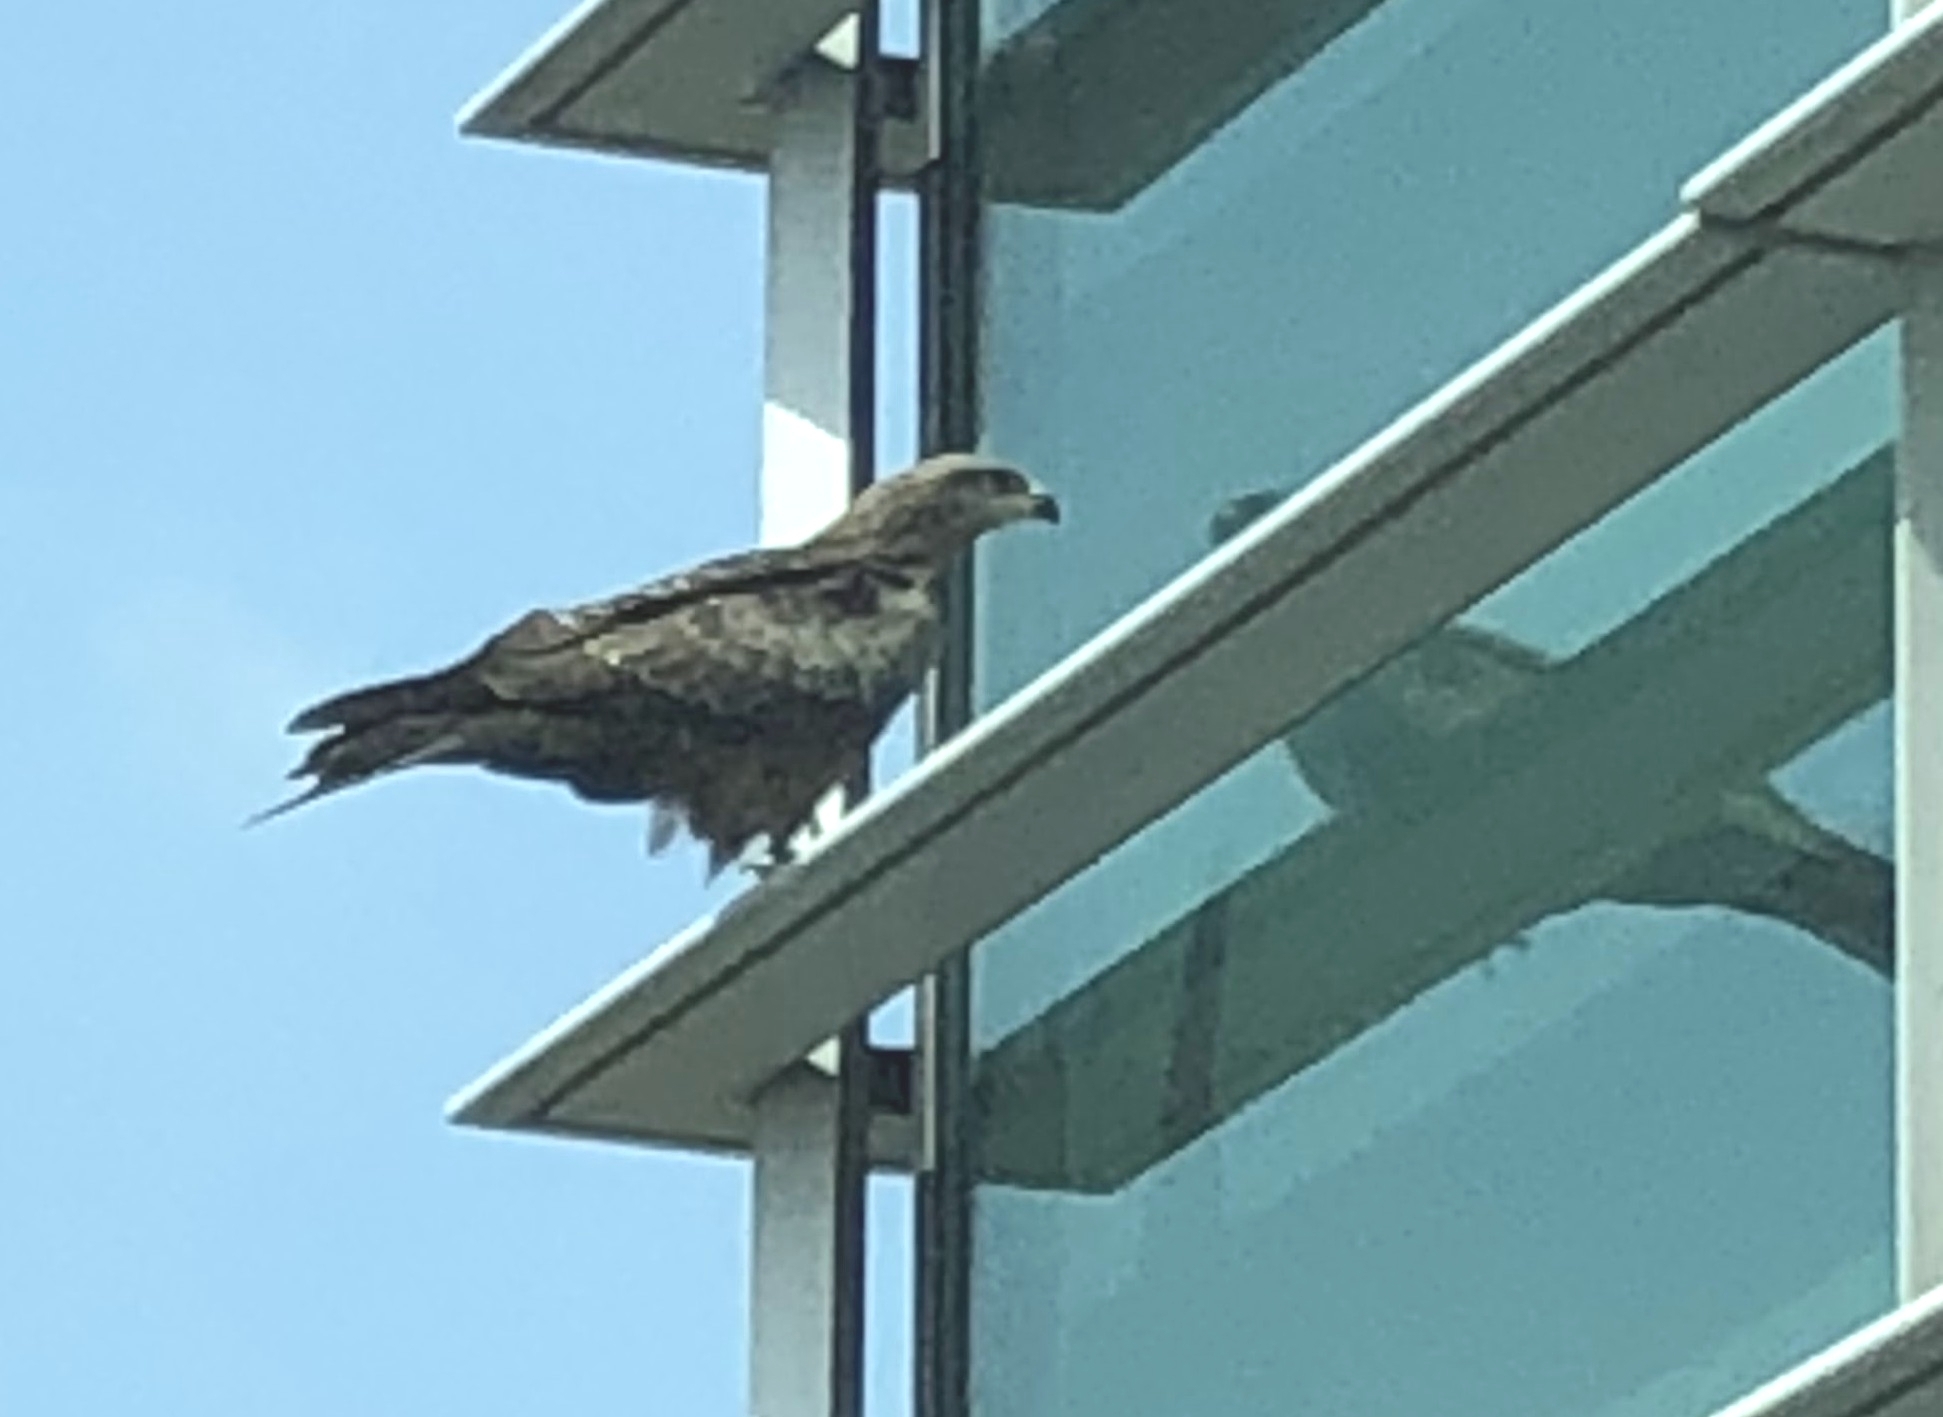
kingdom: Animalia
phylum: Chordata
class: Aves
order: Accipitriformes
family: Accipitridae
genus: Milvus
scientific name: Milvus migrans
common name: Black kite
